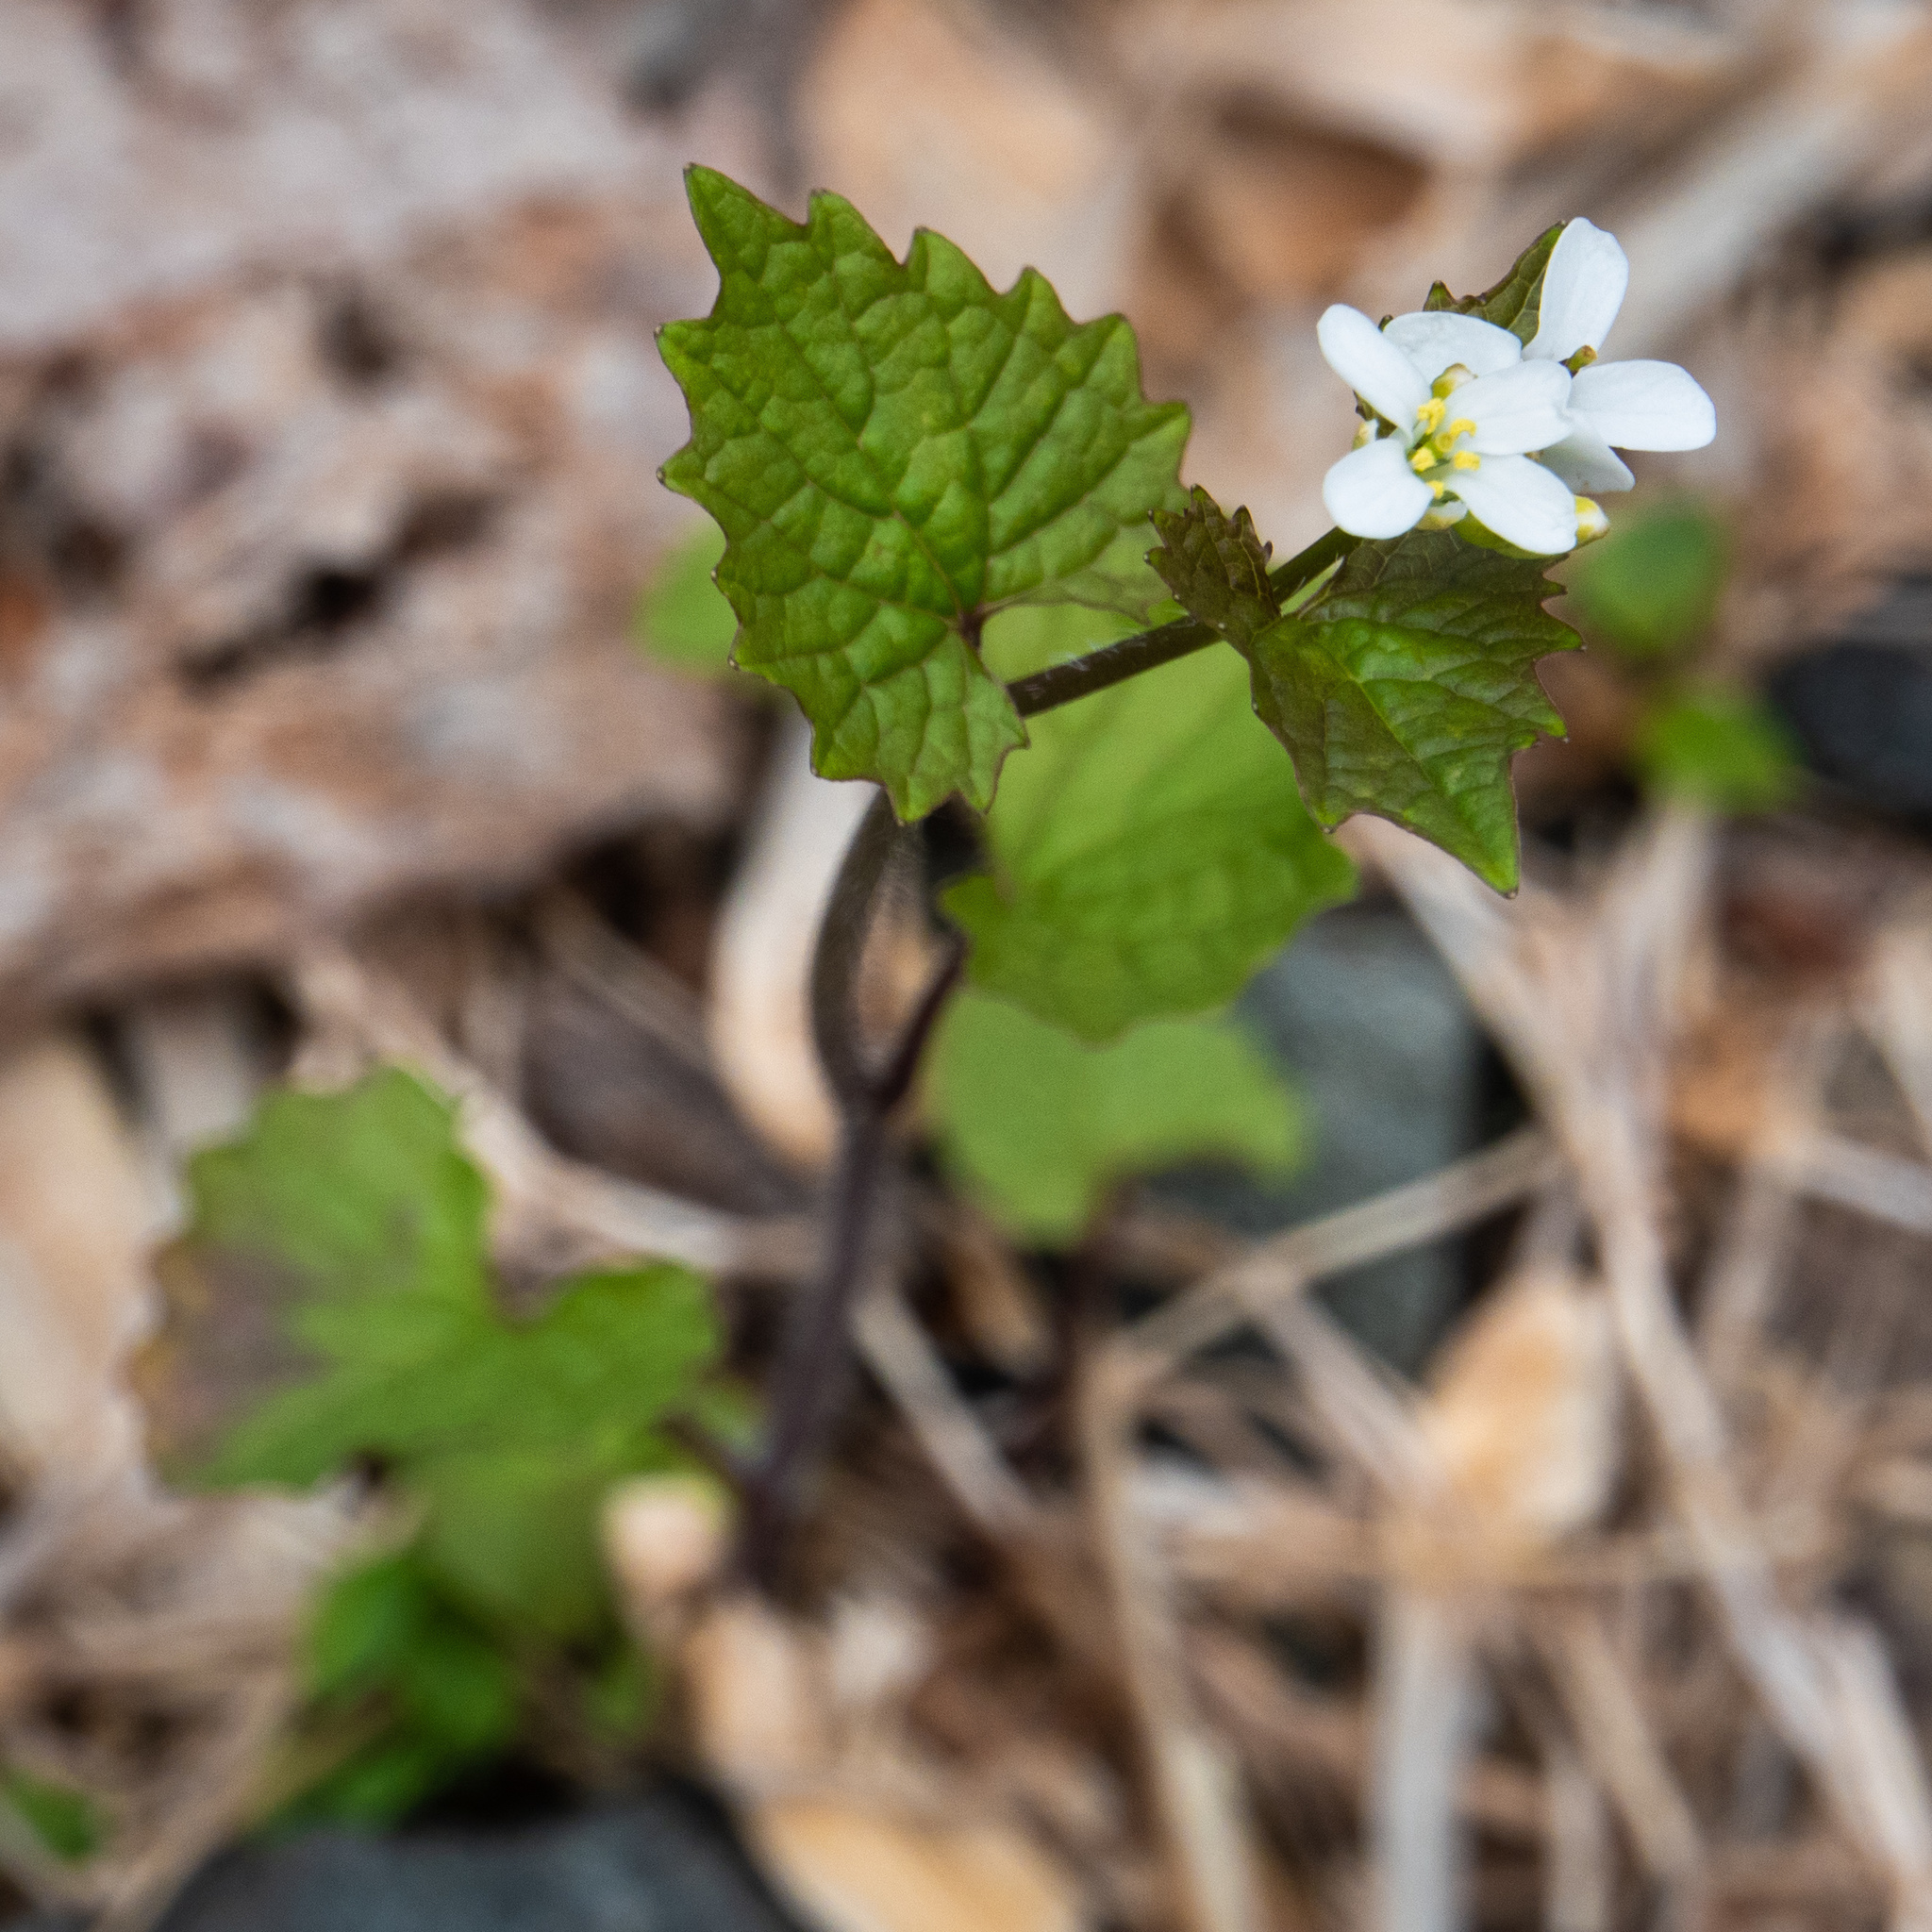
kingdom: Plantae
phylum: Tracheophyta
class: Magnoliopsida
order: Brassicales
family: Brassicaceae
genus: Alliaria
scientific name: Alliaria petiolata
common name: Garlic mustard
